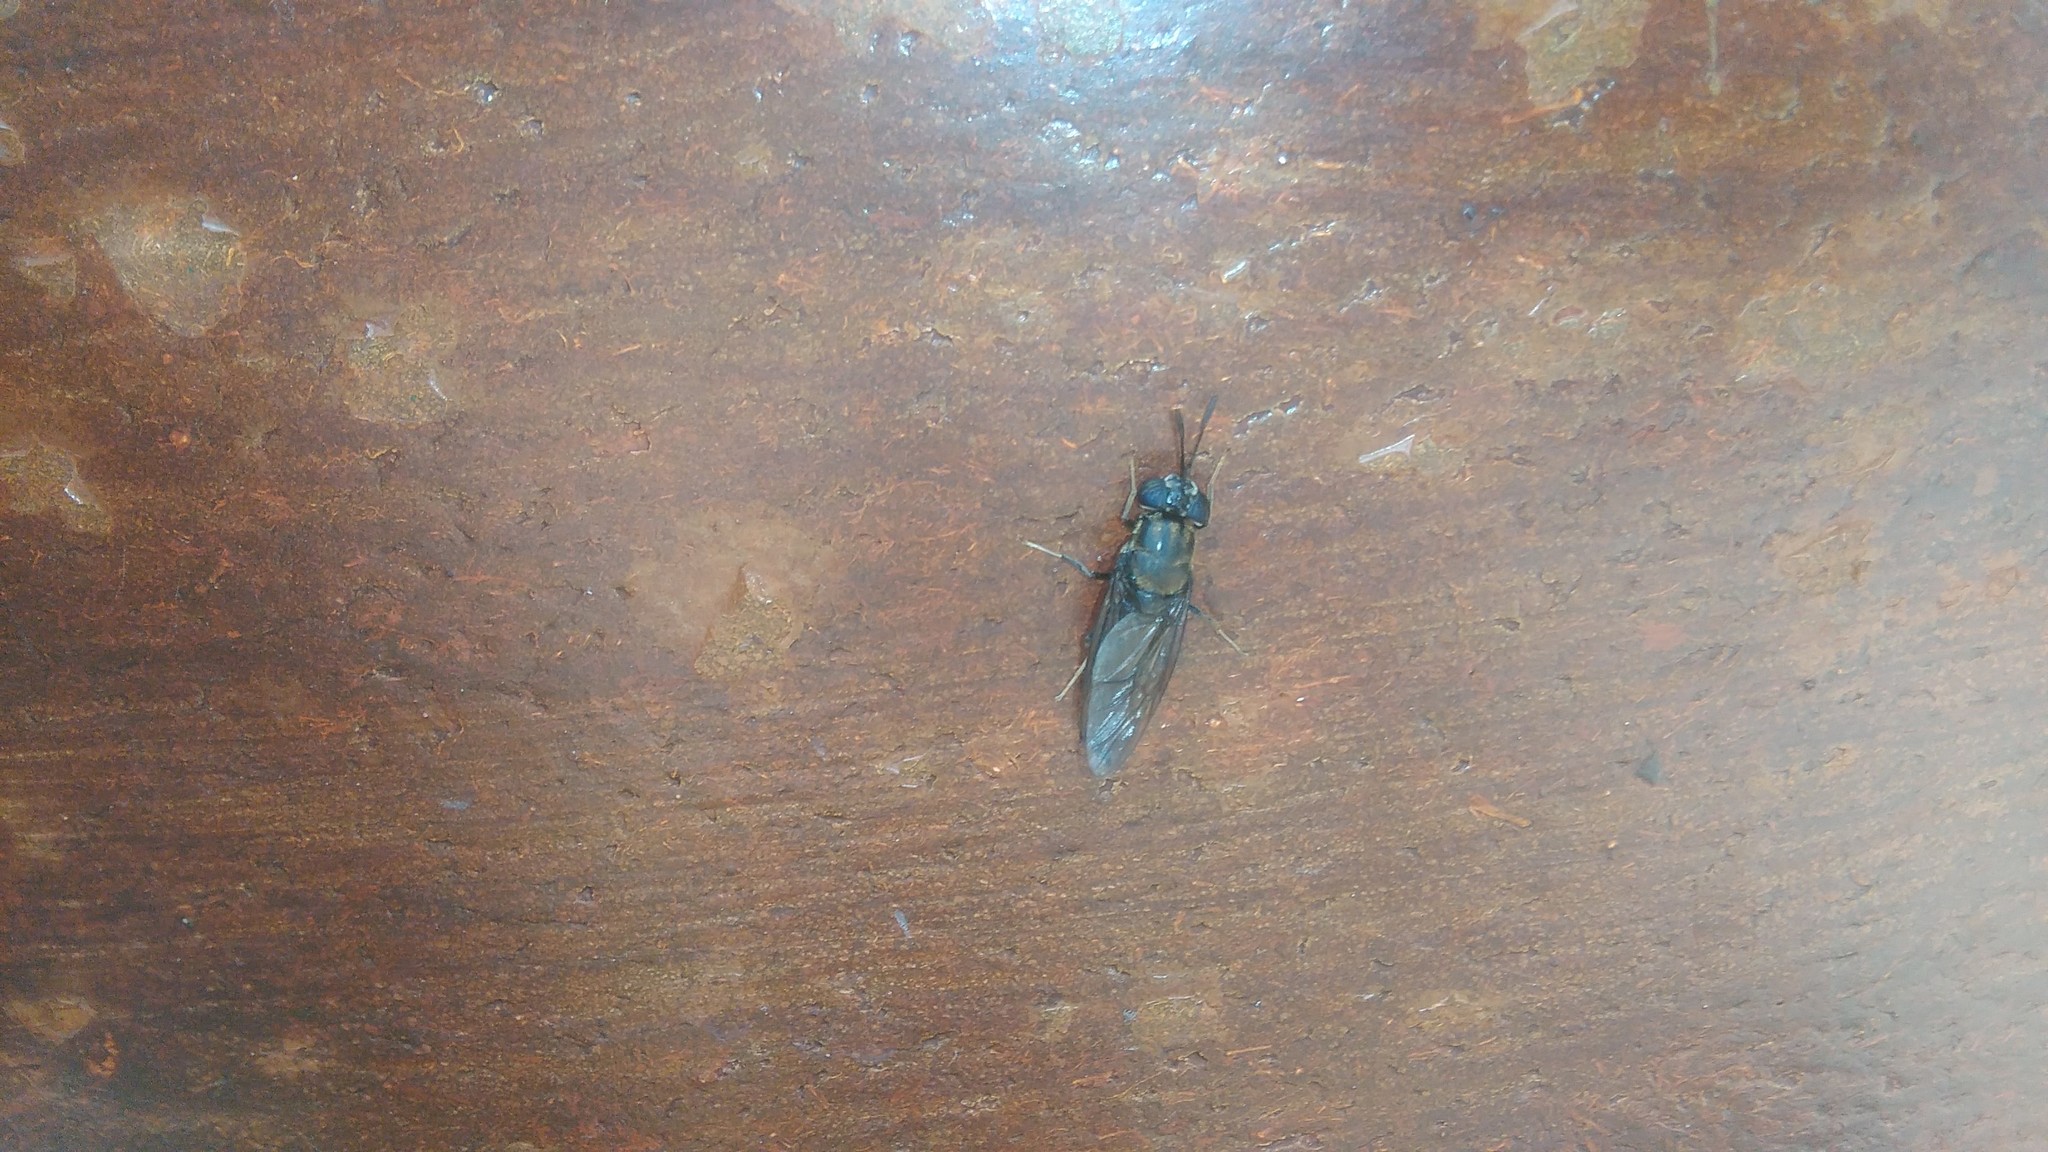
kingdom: Animalia
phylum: Arthropoda
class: Insecta
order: Diptera
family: Stratiomyidae
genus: Hermetia
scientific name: Hermetia illucens
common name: Black soldier fly
